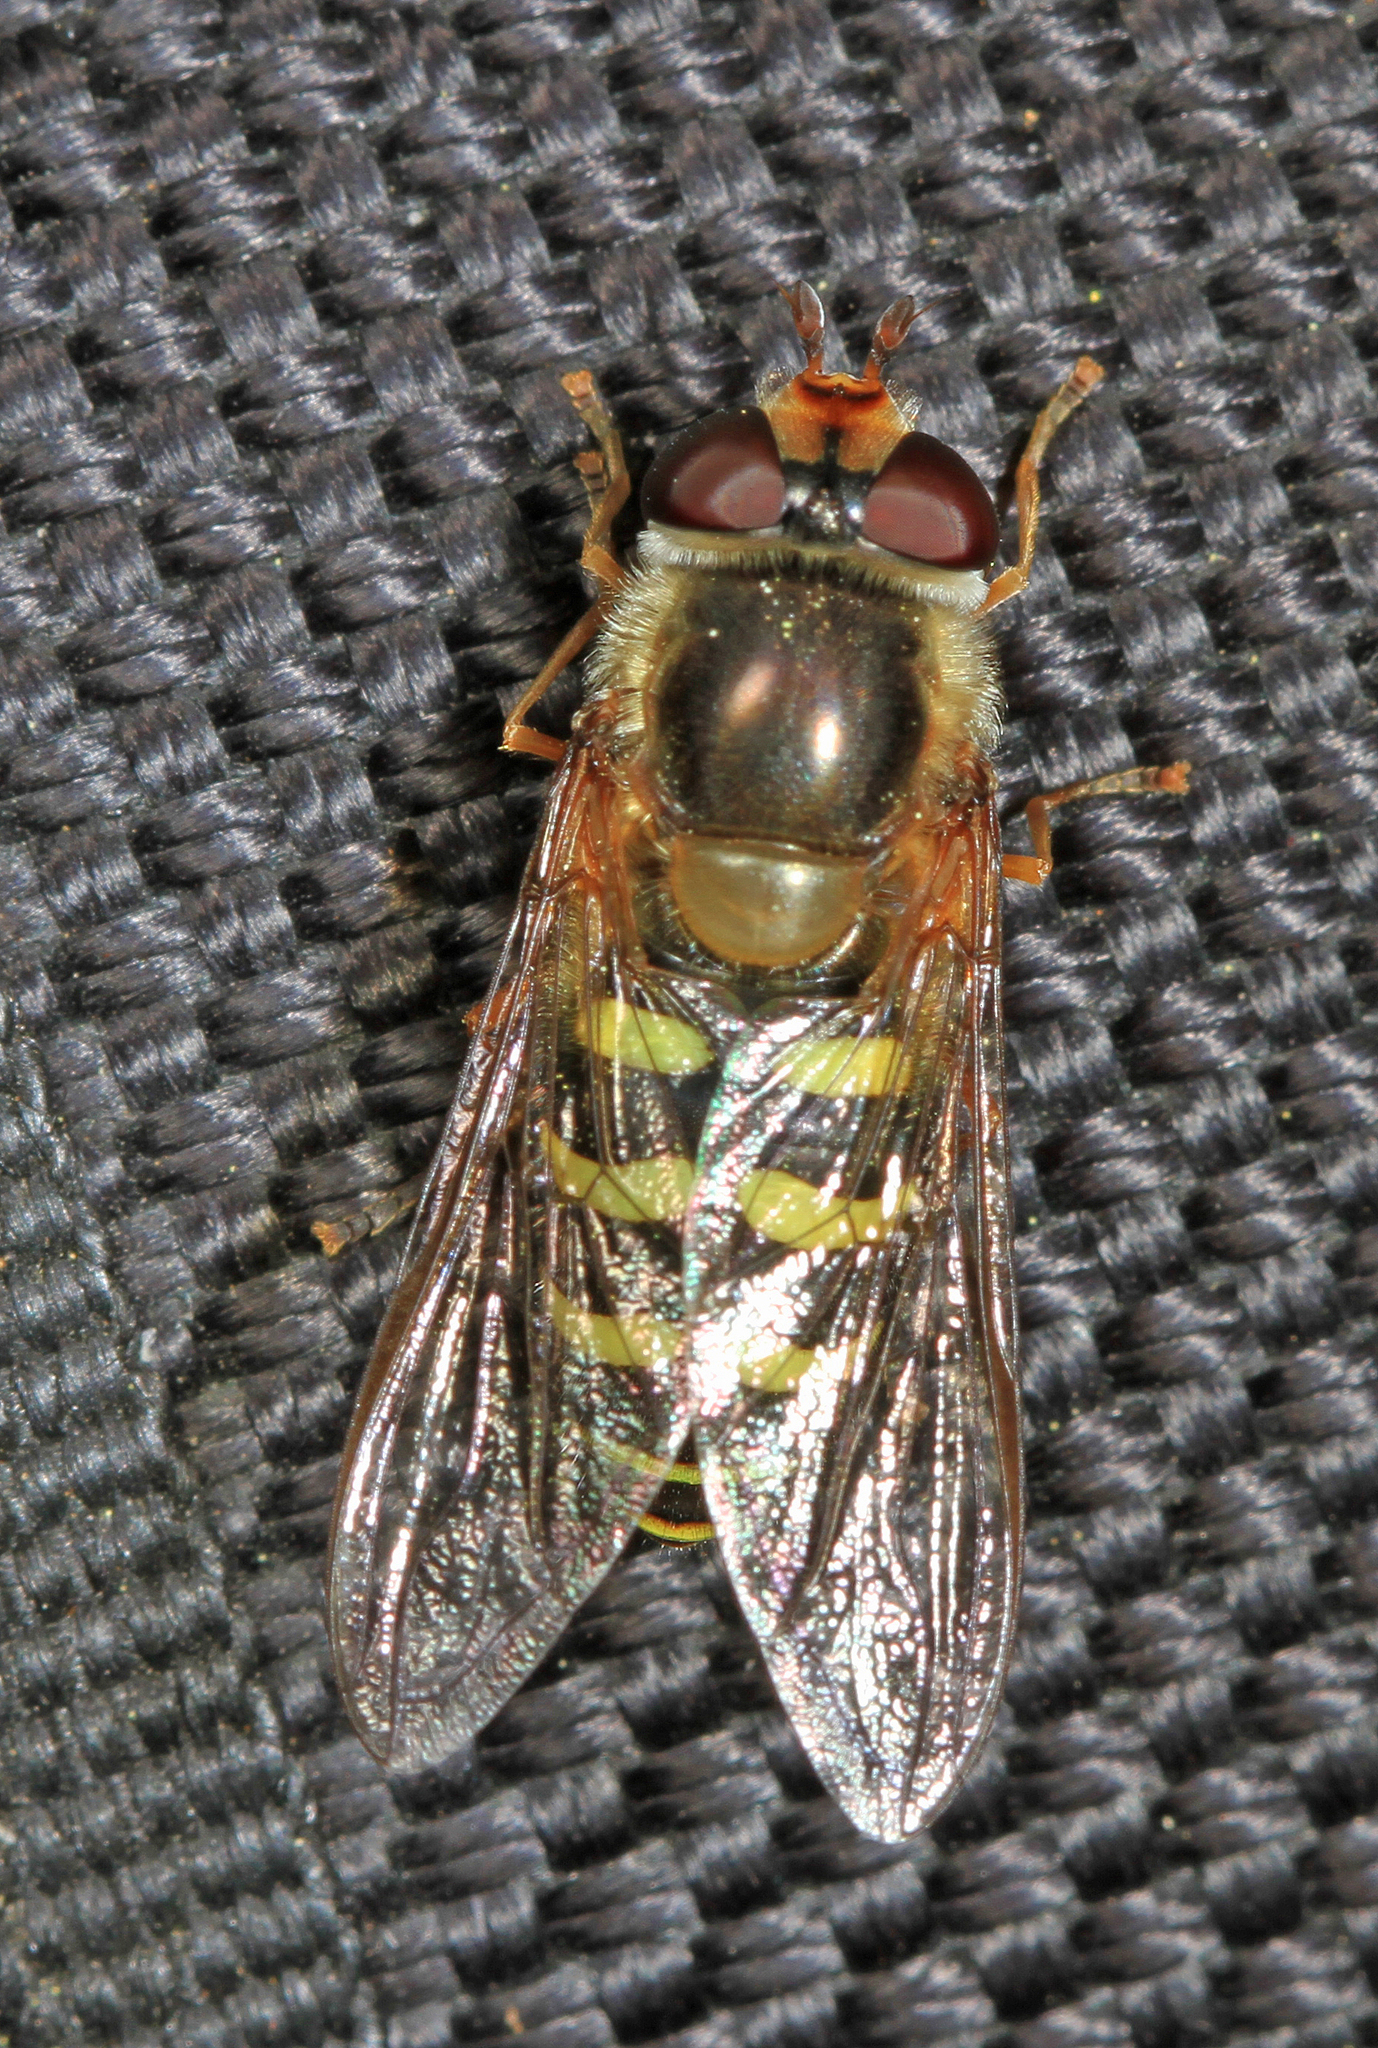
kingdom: Animalia
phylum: Arthropoda
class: Insecta
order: Diptera
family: Syrphidae
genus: Lapposyrphus
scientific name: Lapposyrphus lapponicus
